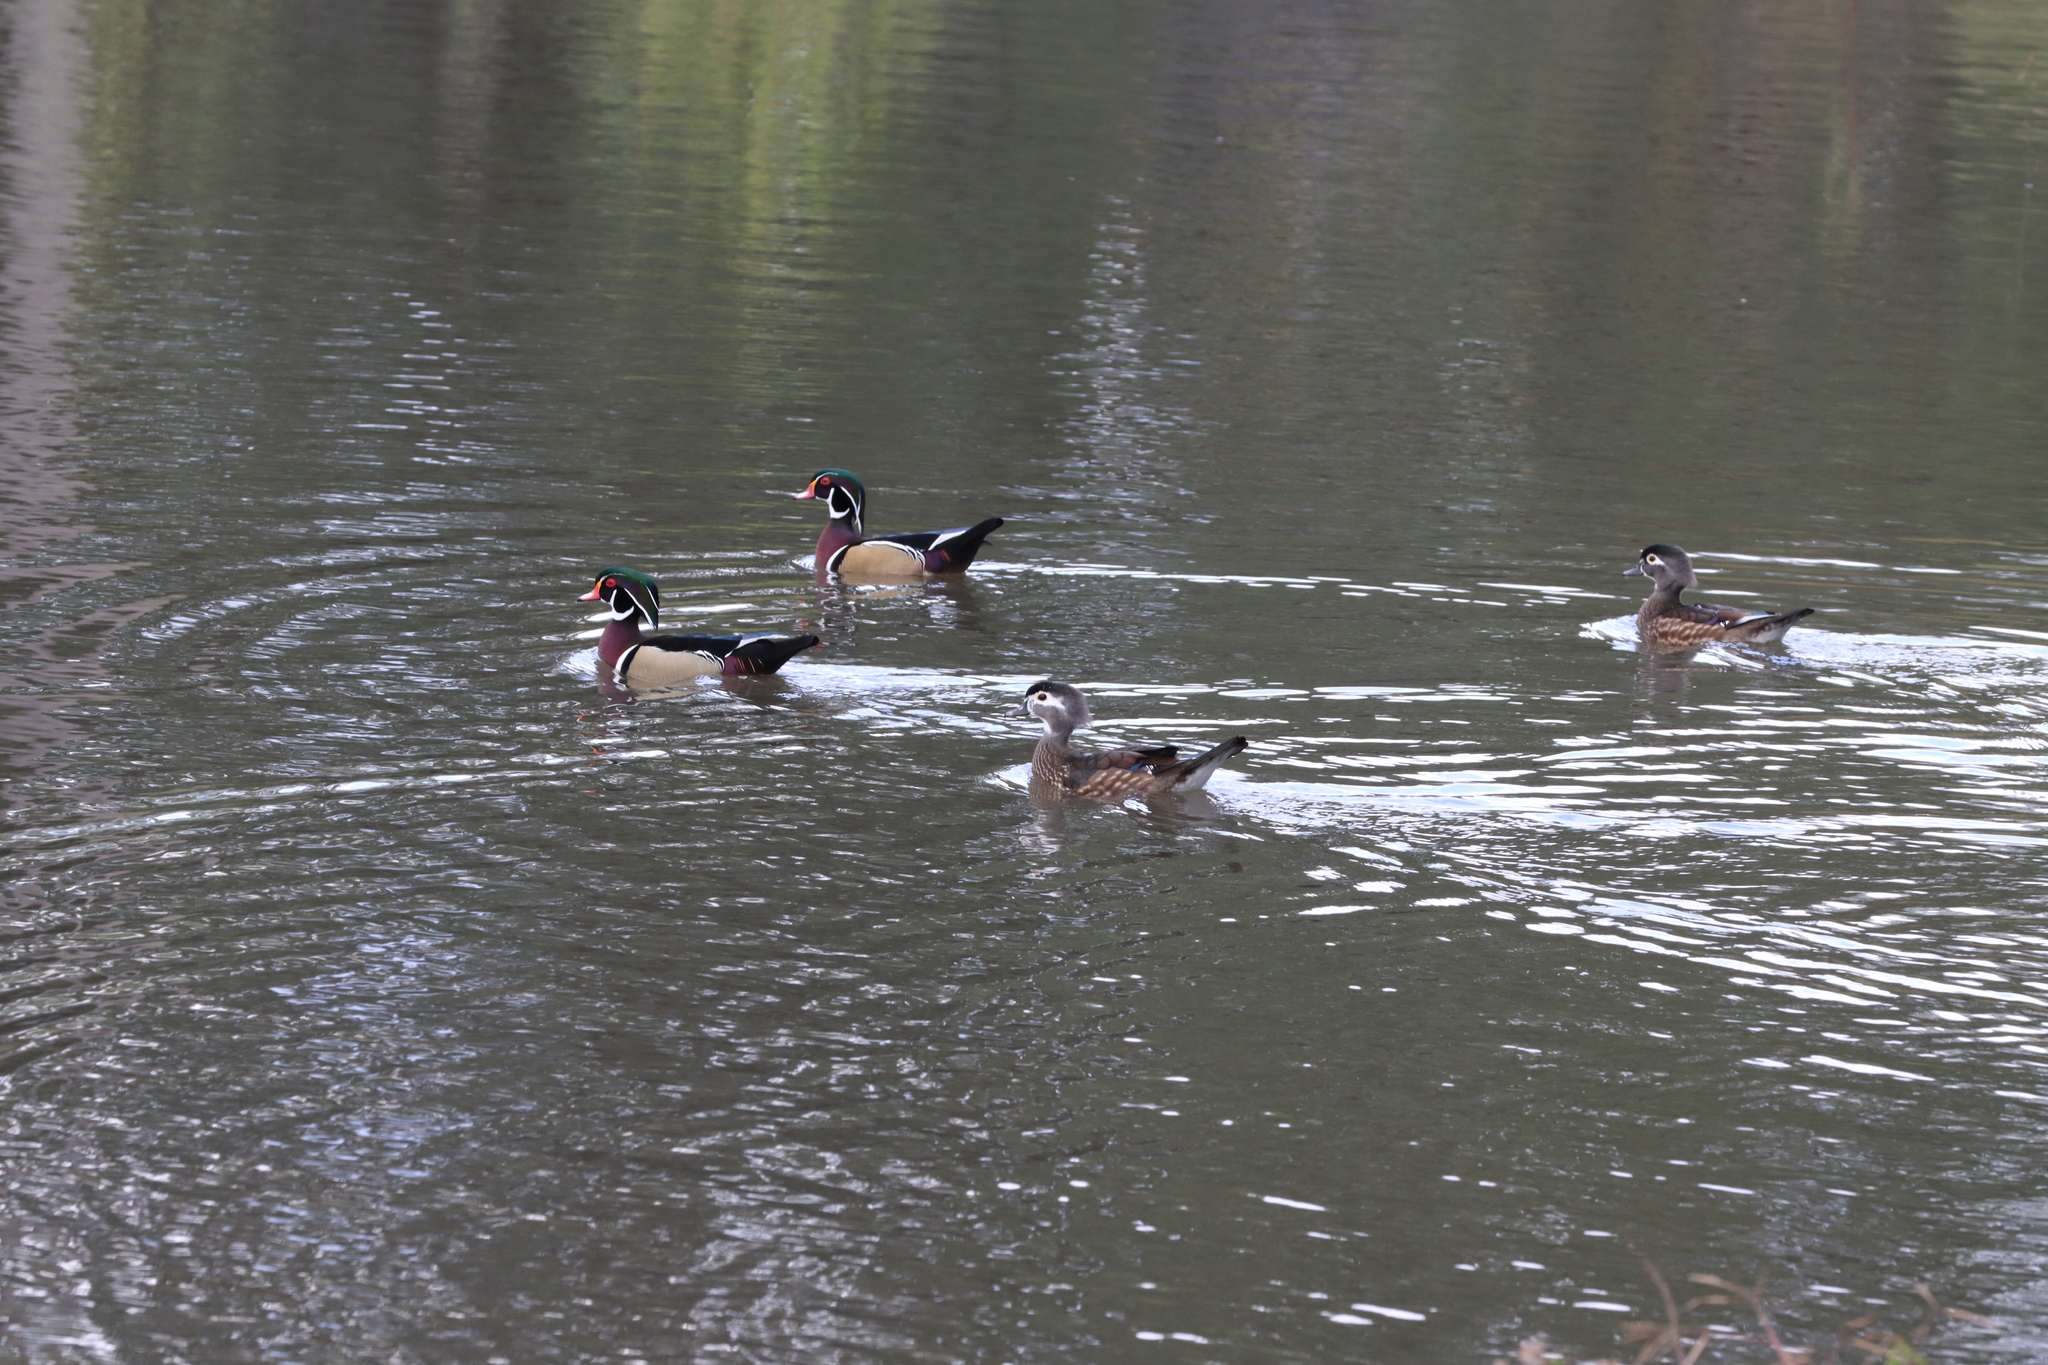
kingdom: Animalia
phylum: Chordata
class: Aves
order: Anseriformes
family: Anatidae
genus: Aix
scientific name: Aix sponsa
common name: Wood duck
